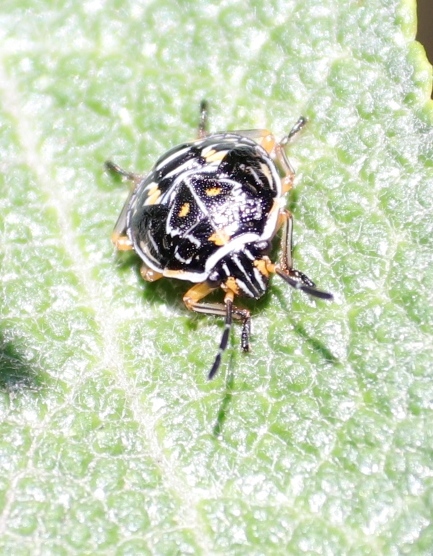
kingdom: Animalia
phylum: Arthropoda
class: Insecta
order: Hemiptera
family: Pentatomidae
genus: Antestiopsis
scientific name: Antestiopsis thunbergii
